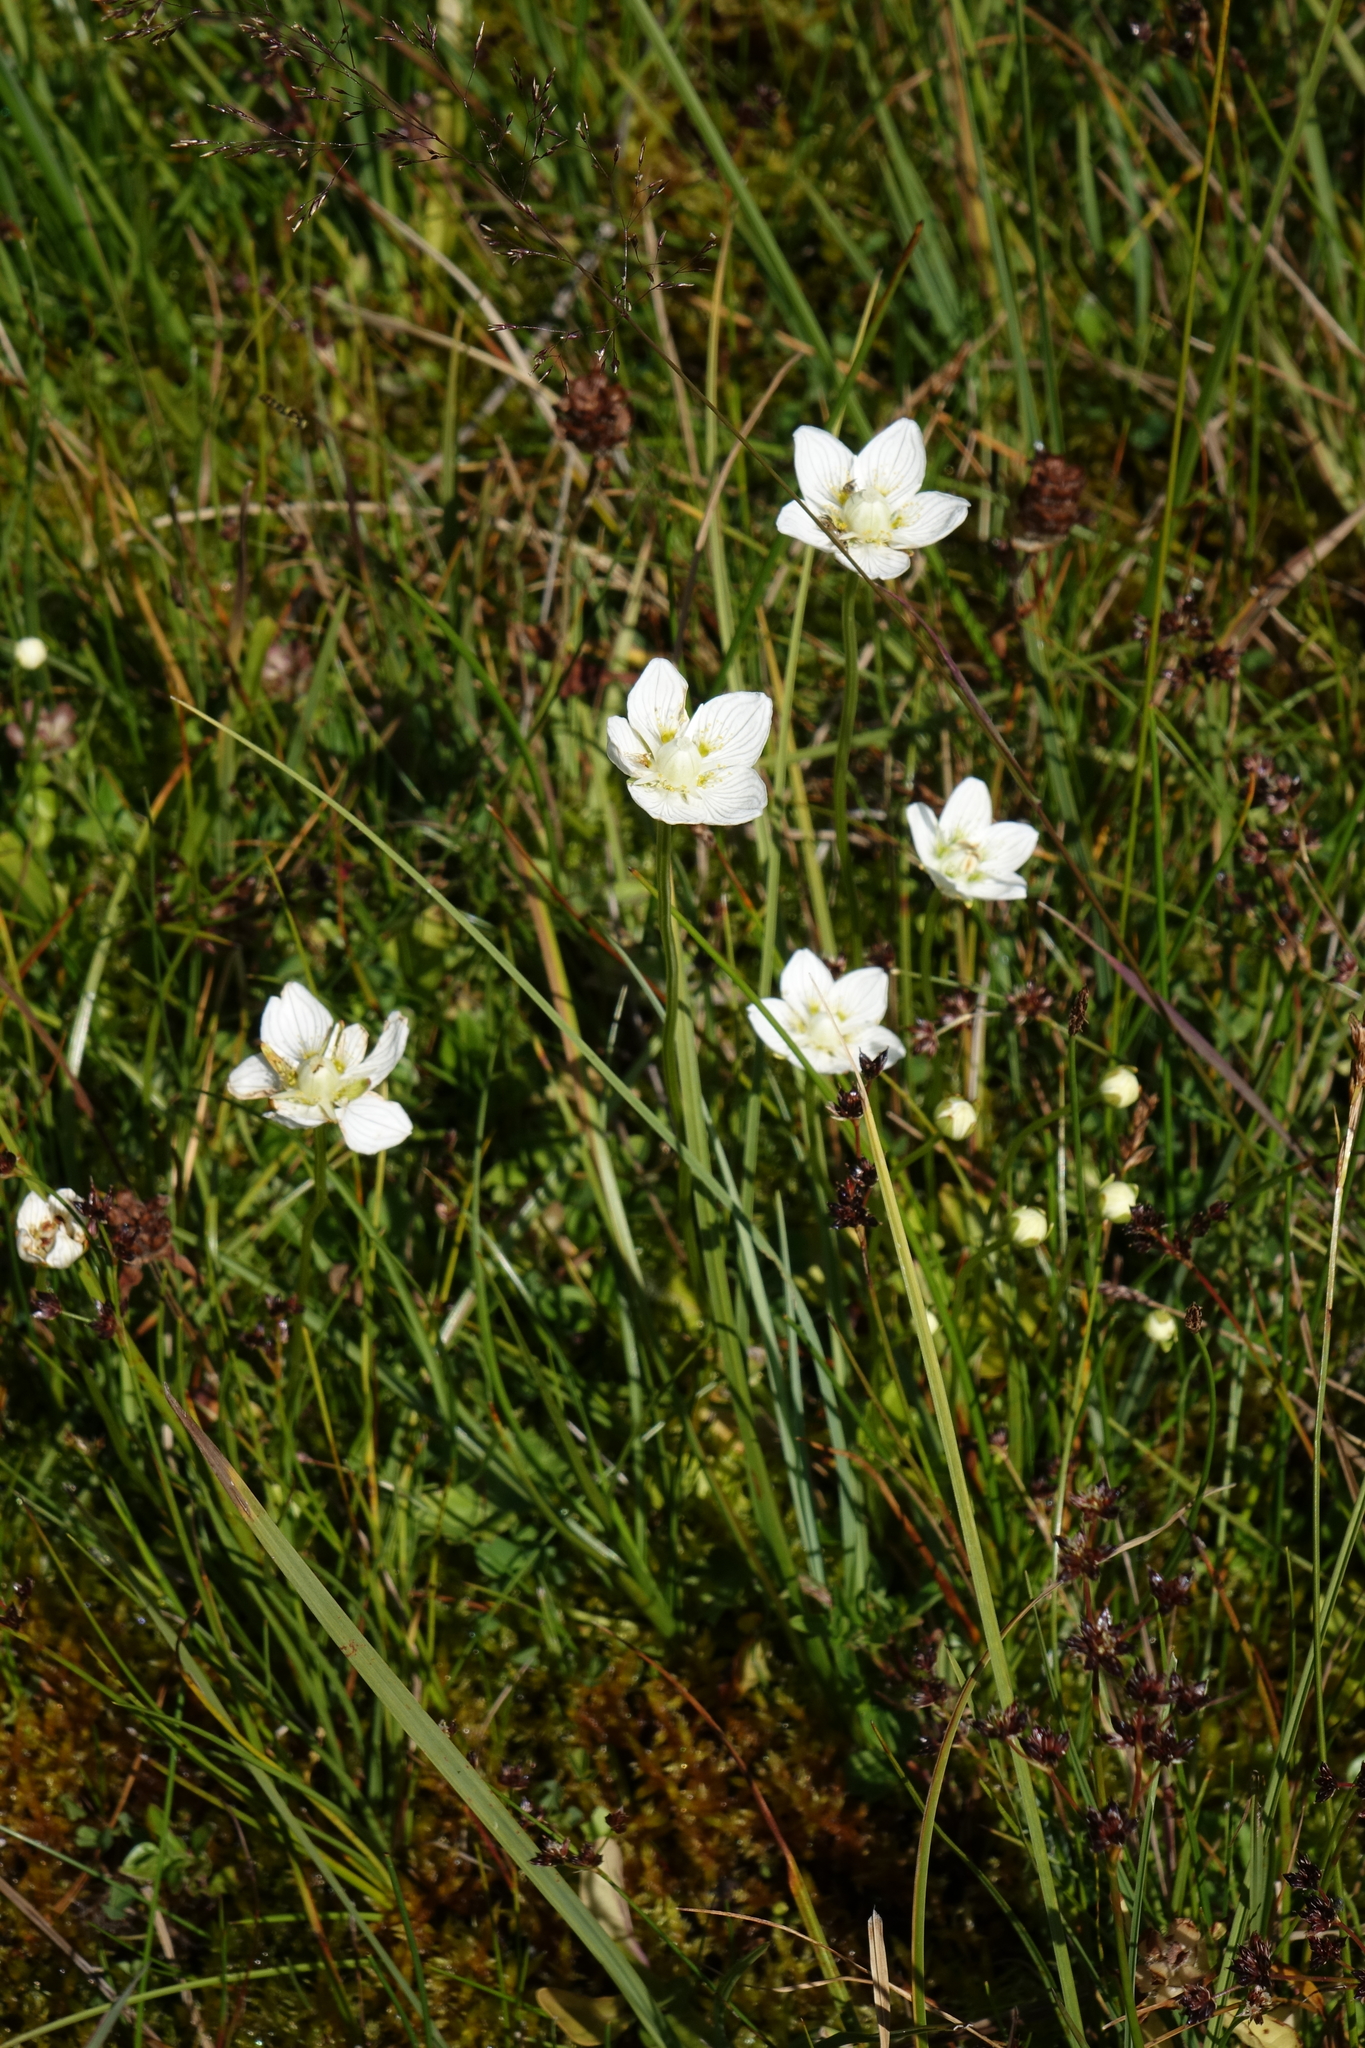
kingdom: Plantae
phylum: Tracheophyta
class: Magnoliopsida
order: Celastrales
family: Parnassiaceae
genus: Parnassia
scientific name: Parnassia palustris
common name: Grass-of-parnassus
